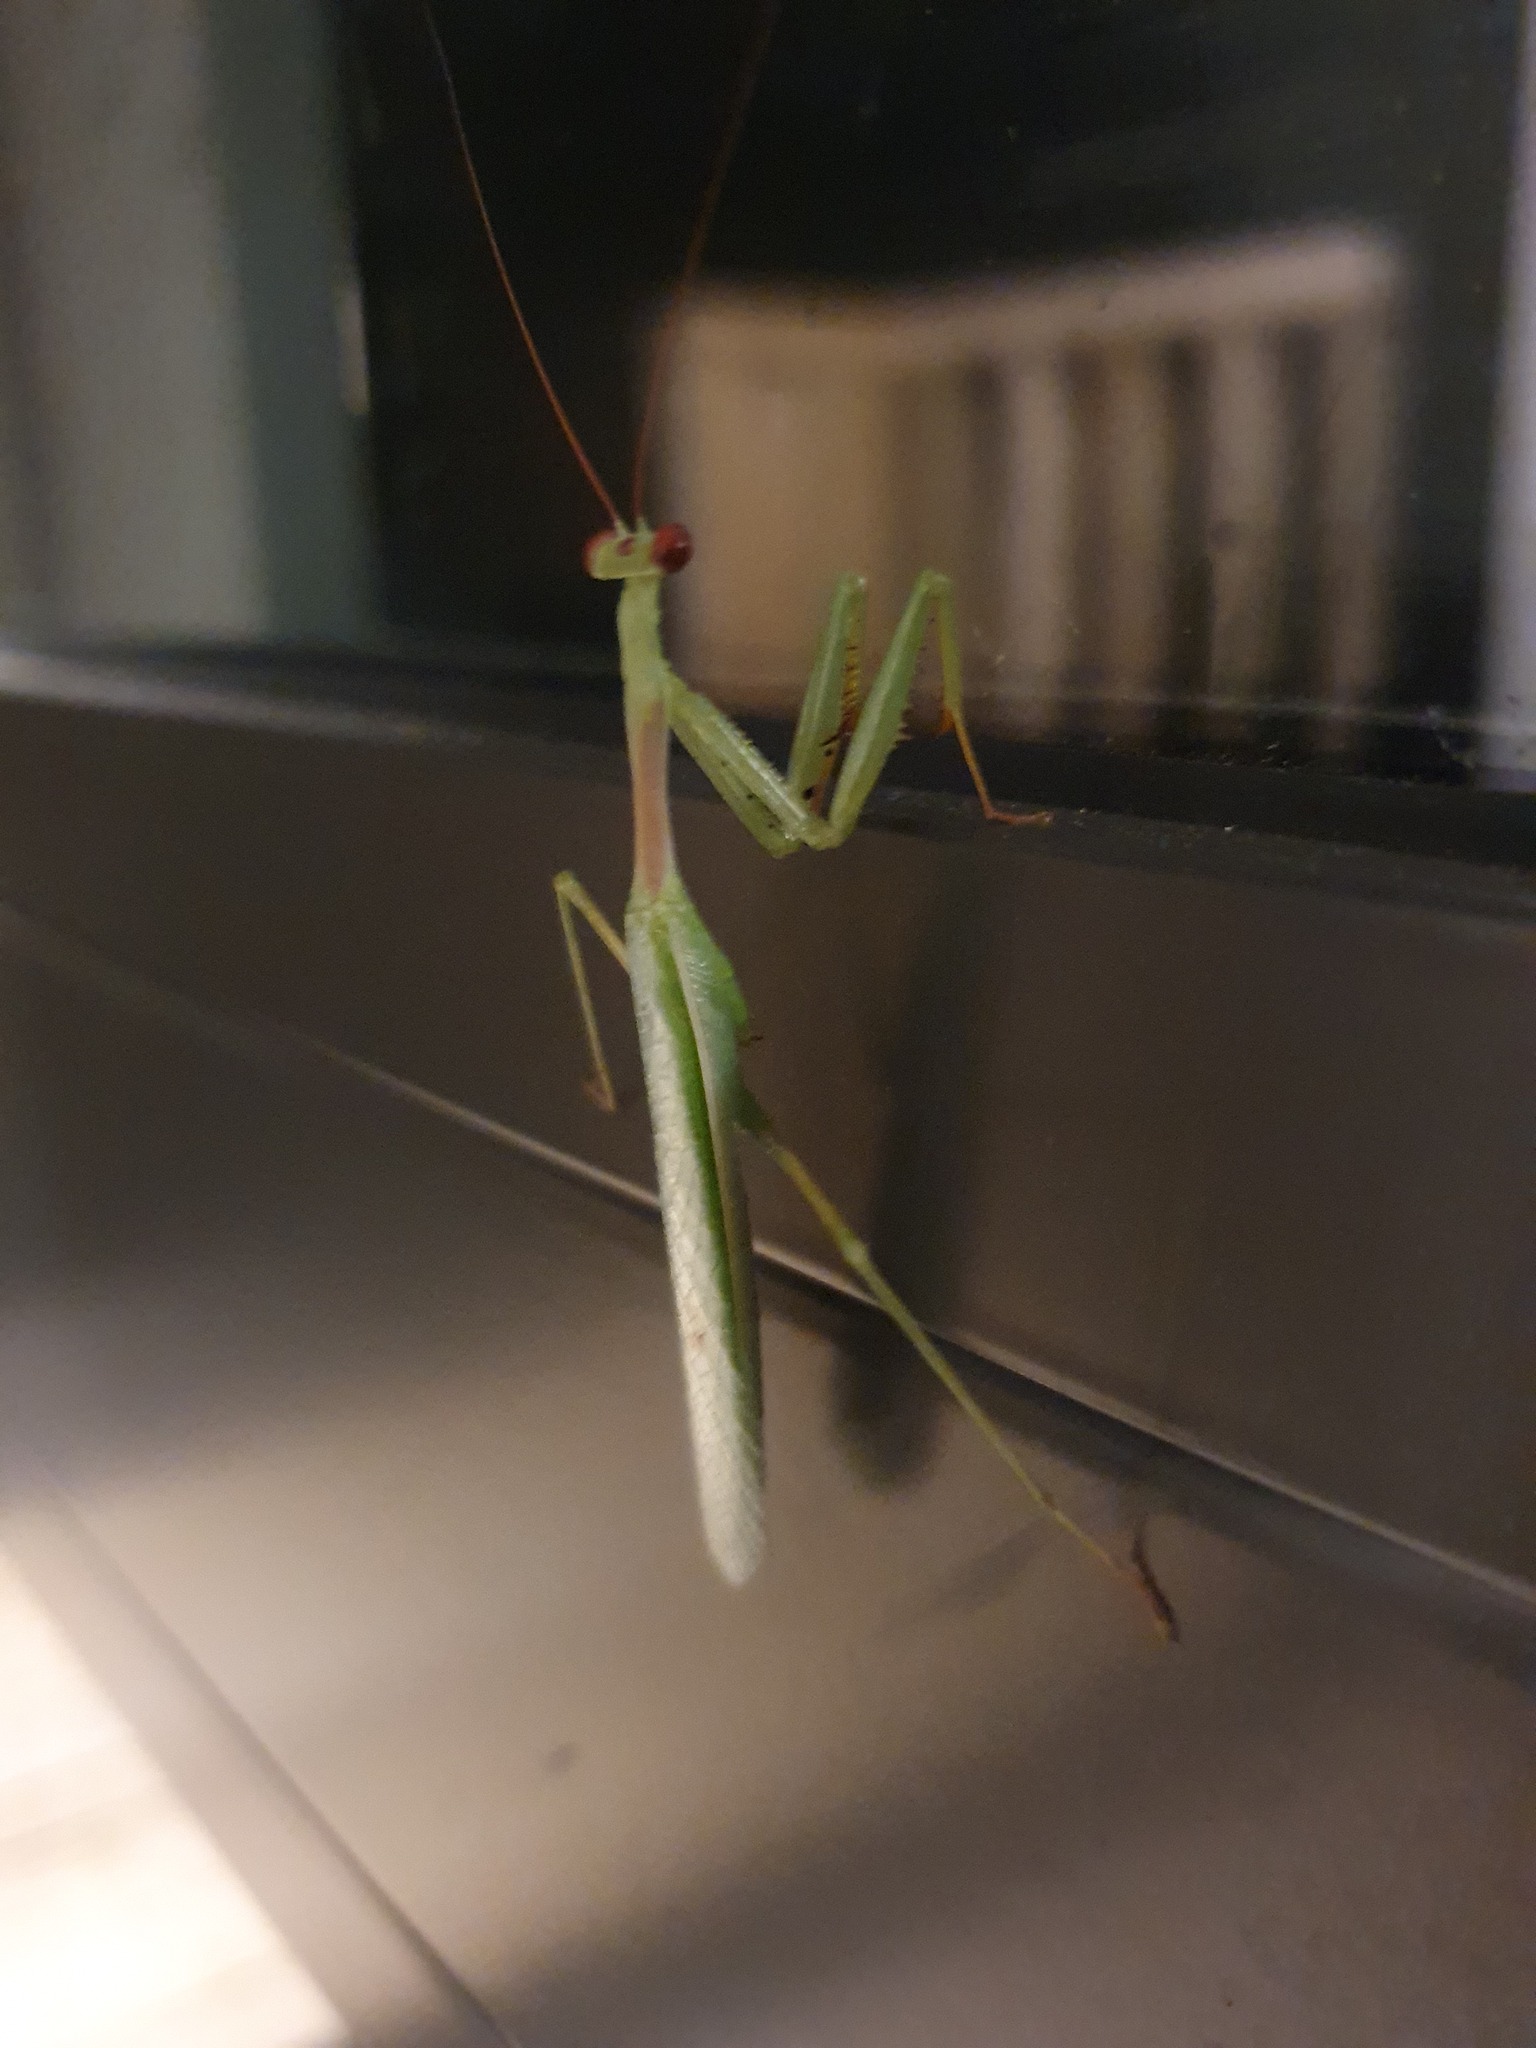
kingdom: Animalia
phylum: Arthropoda
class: Insecta
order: Mantodea
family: Miomantidae
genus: Miomantis
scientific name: Miomantis caffra
